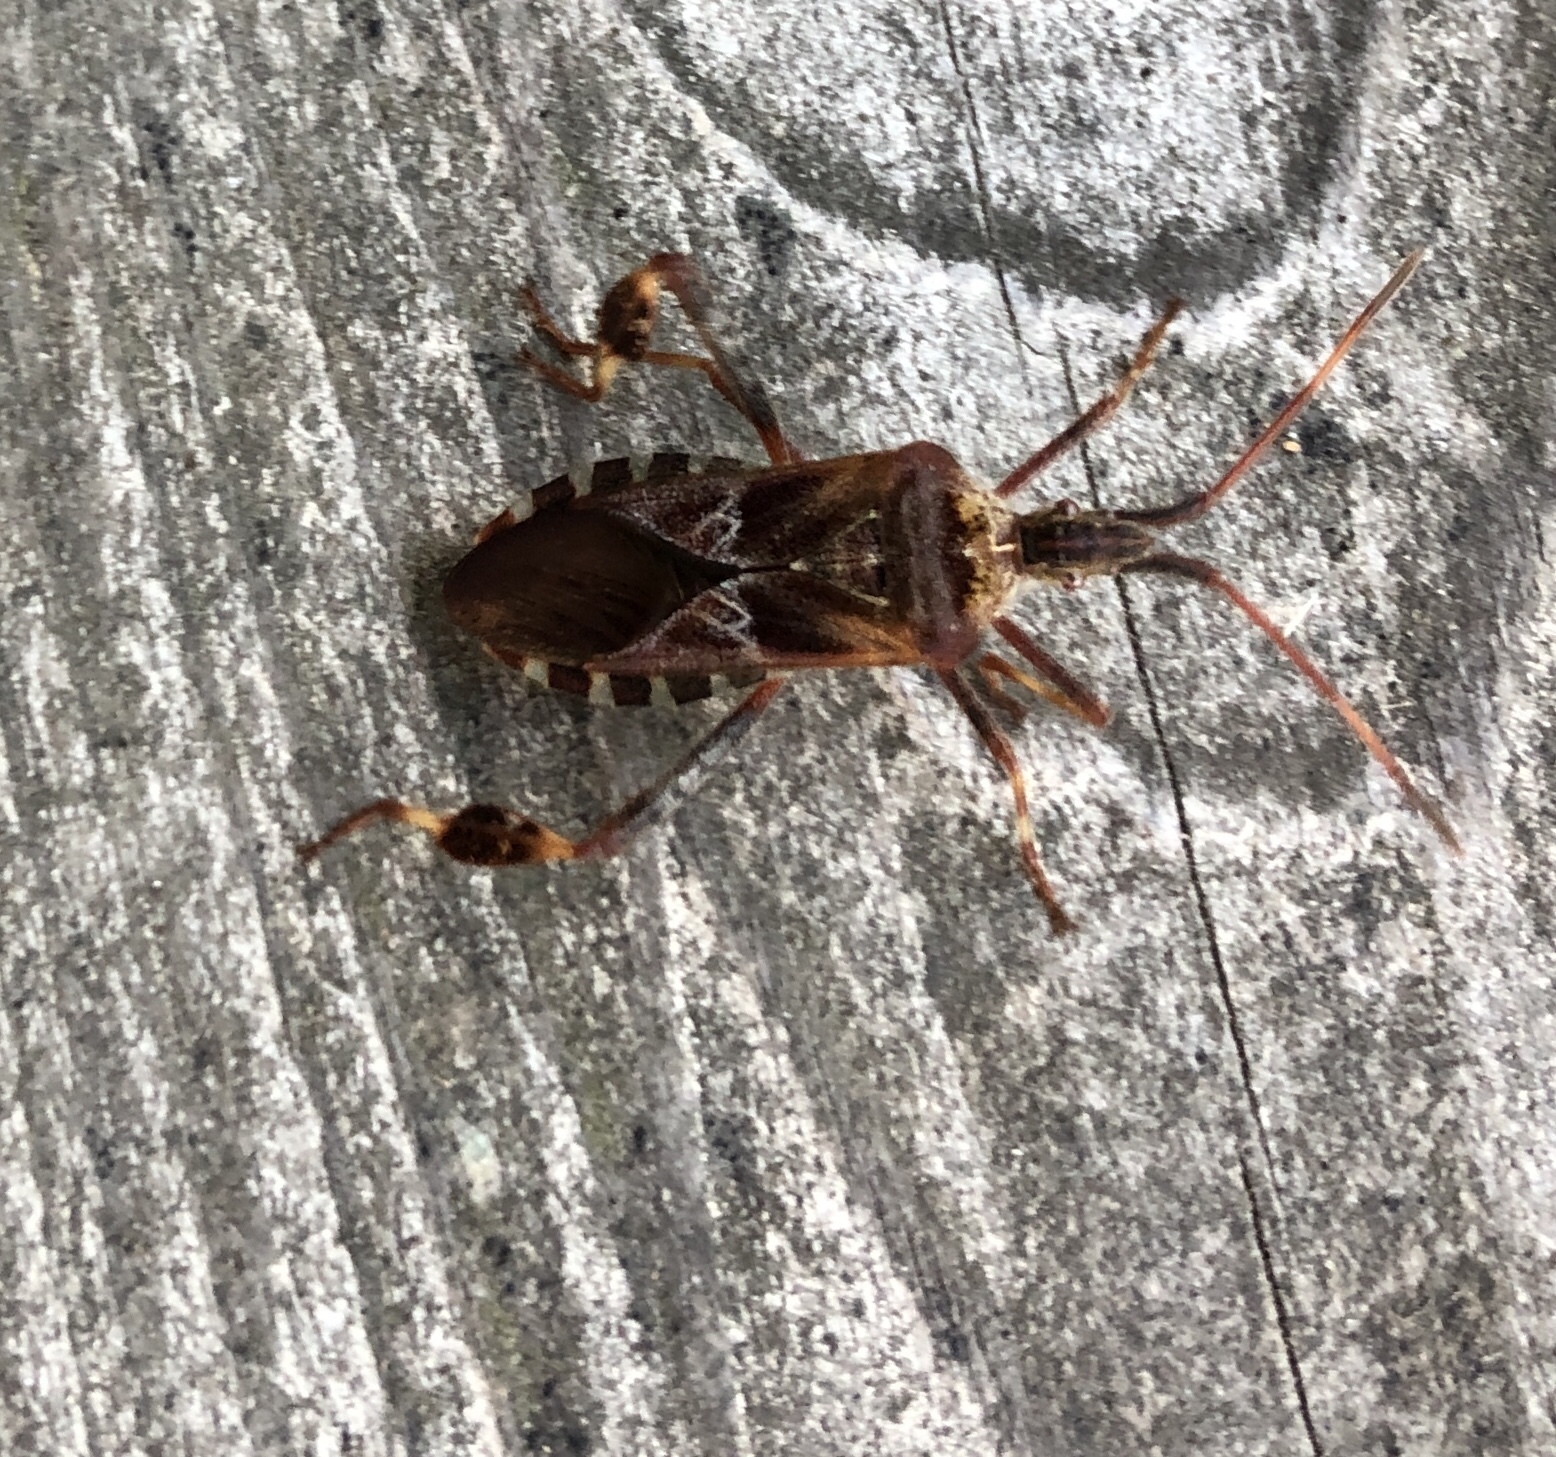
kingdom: Animalia
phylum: Arthropoda
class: Insecta
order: Hemiptera
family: Coreidae
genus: Leptoglossus
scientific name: Leptoglossus occidentalis
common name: Western conifer-seed bug
